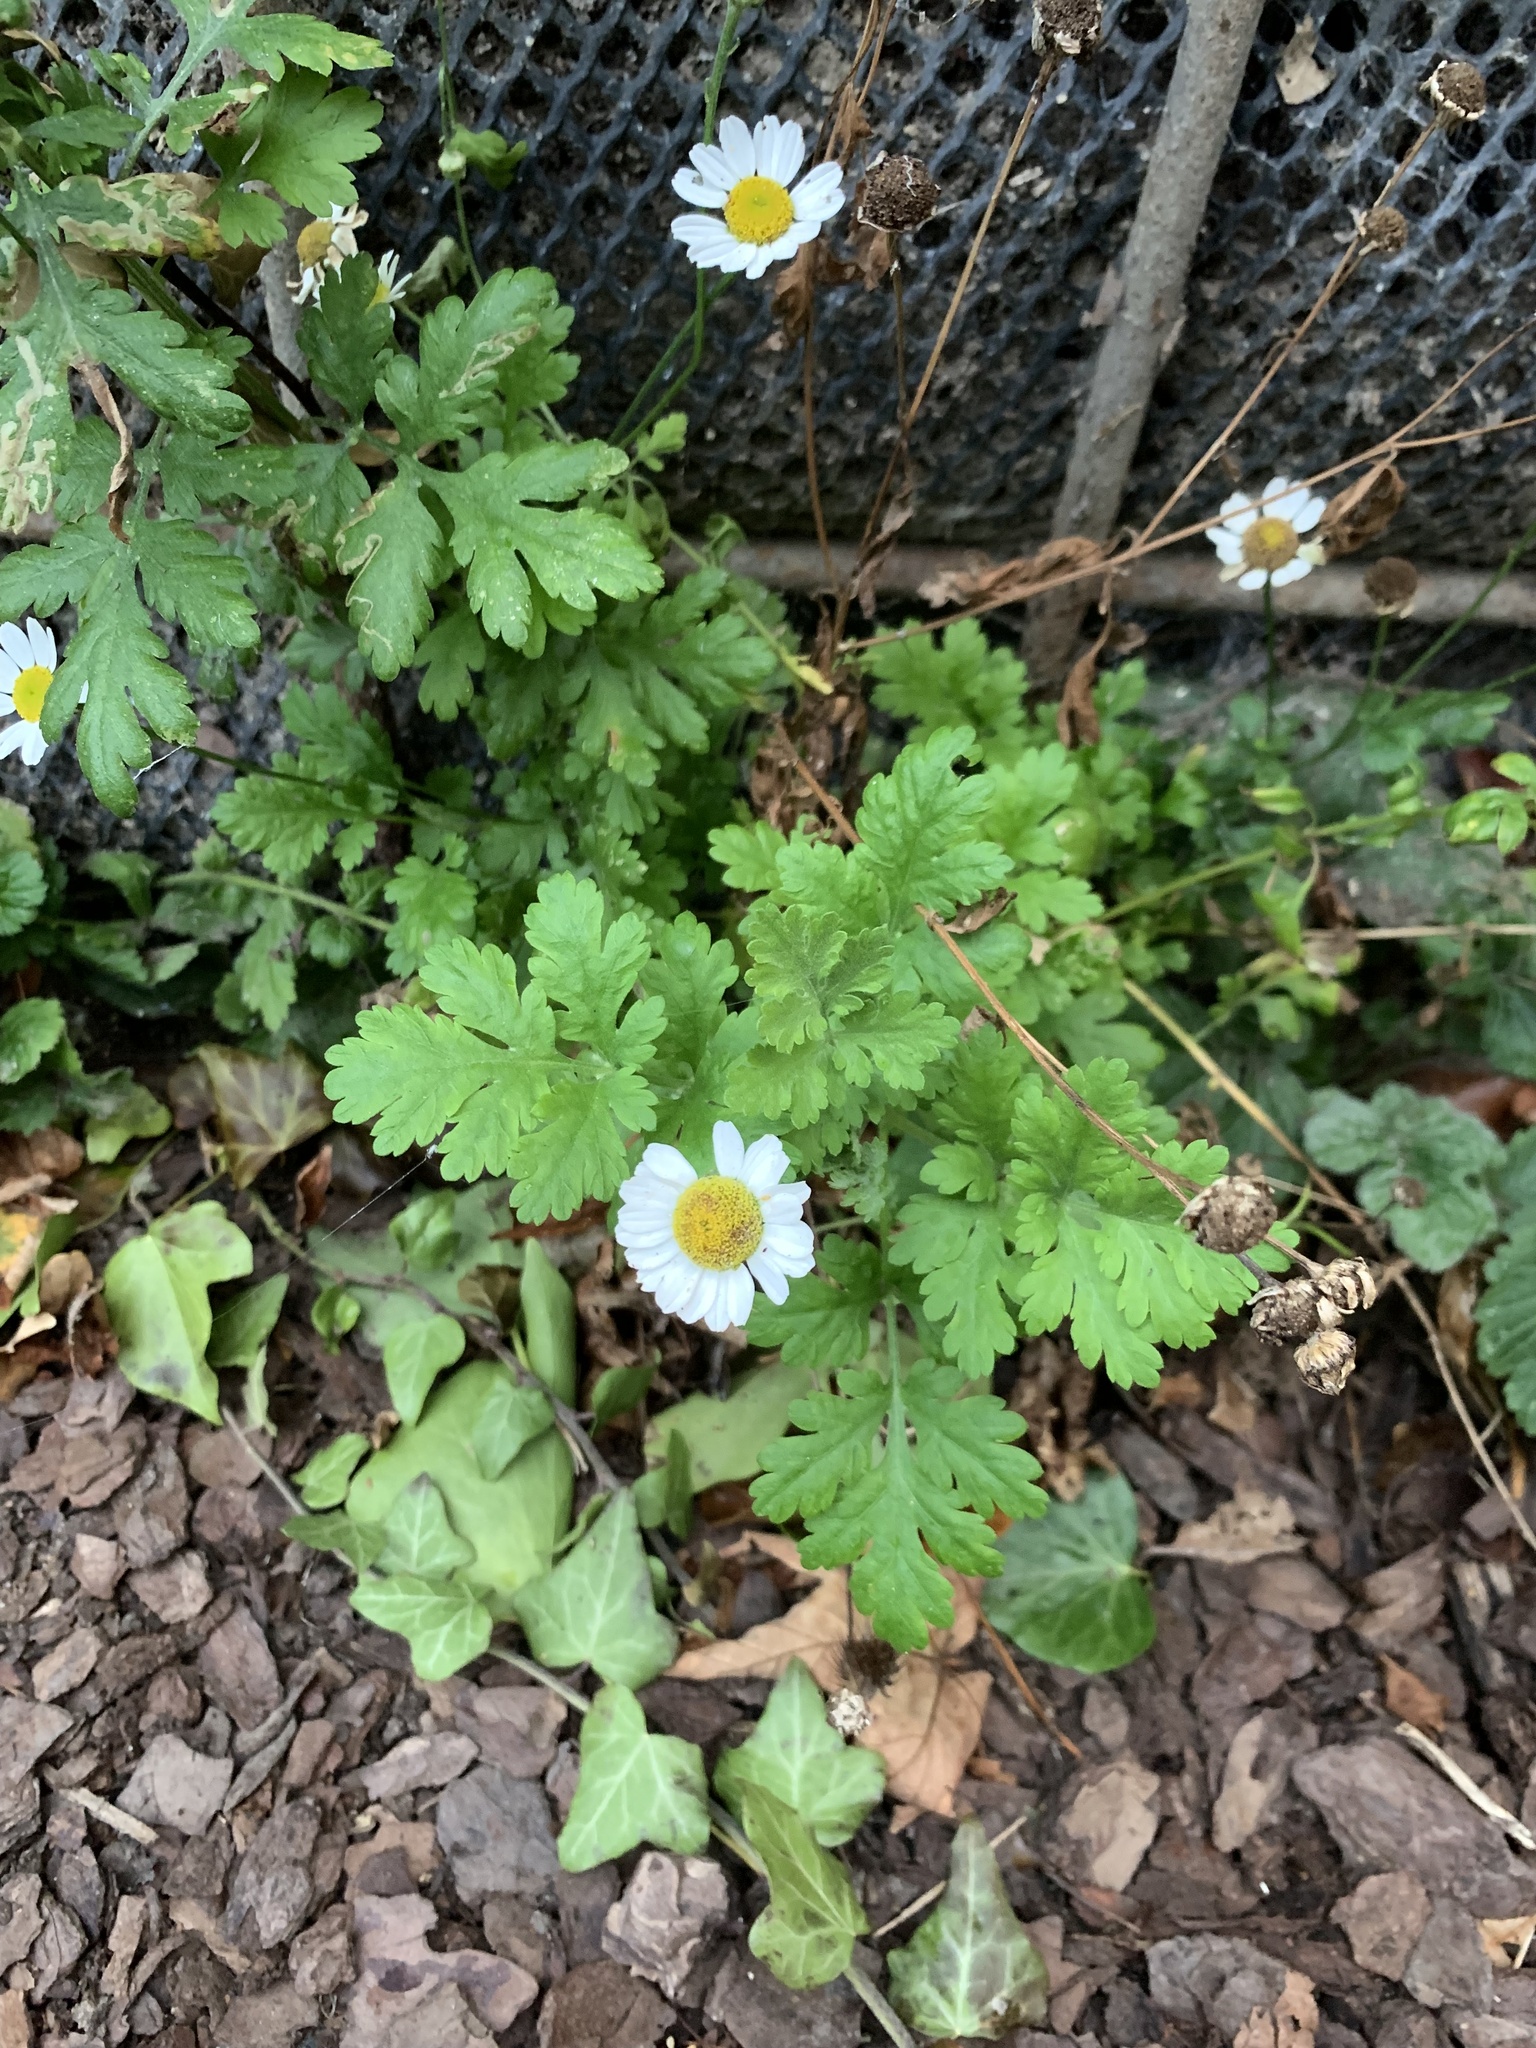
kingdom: Plantae
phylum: Tracheophyta
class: Magnoliopsida
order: Asterales
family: Asteraceae
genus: Tanacetum
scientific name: Tanacetum parthenium
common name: Feverfew
